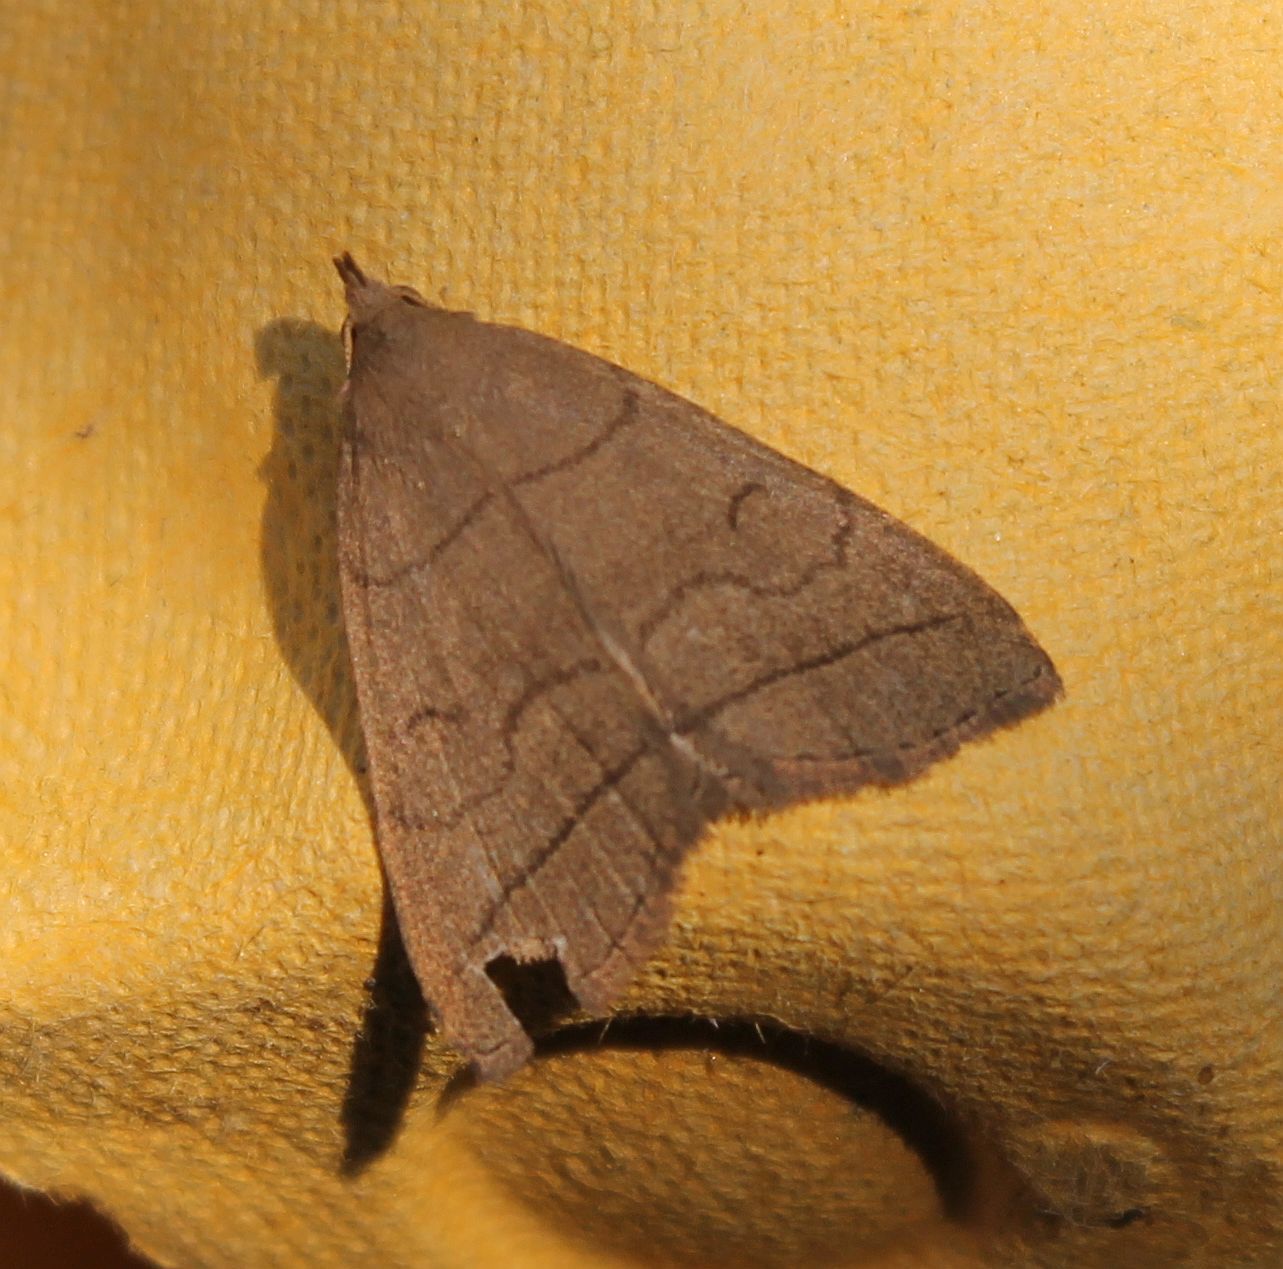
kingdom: Animalia
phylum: Arthropoda
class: Insecta
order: Lepidoptera
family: Erebidae
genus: Herminia
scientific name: Herminia tarsipennalis
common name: Fan-foot
